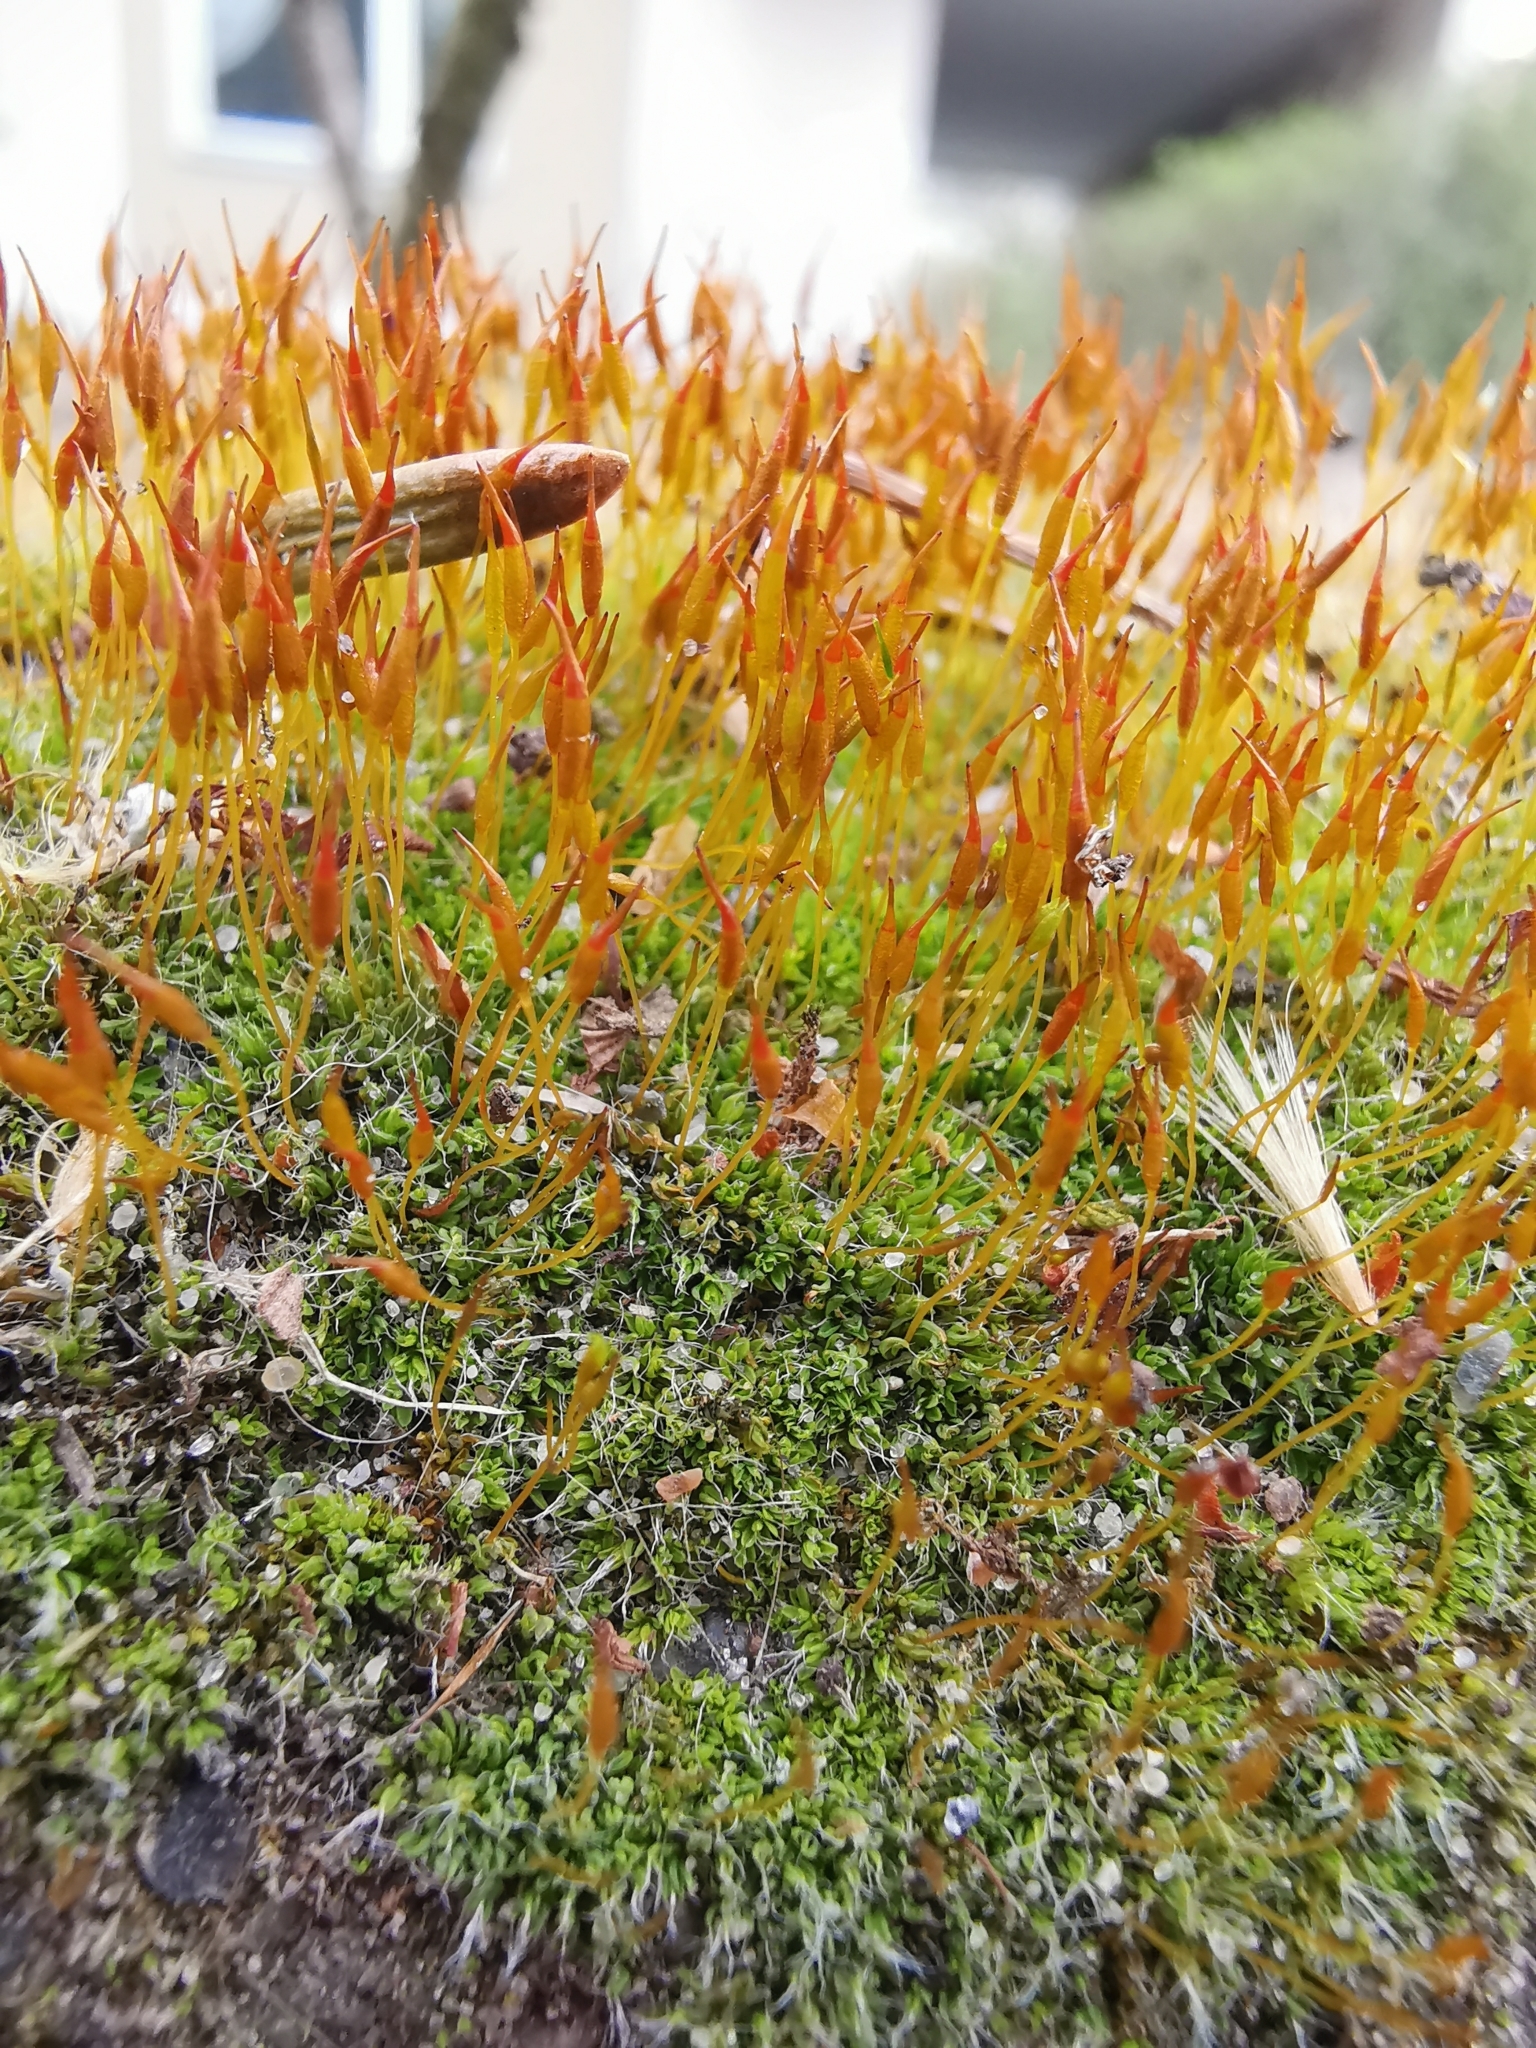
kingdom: Plantae
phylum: Bryophyta
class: Bryopsida
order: Pottiales
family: Pottiaceae
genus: Tortula
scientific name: Tortula muralis
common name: Wall screw-moss
